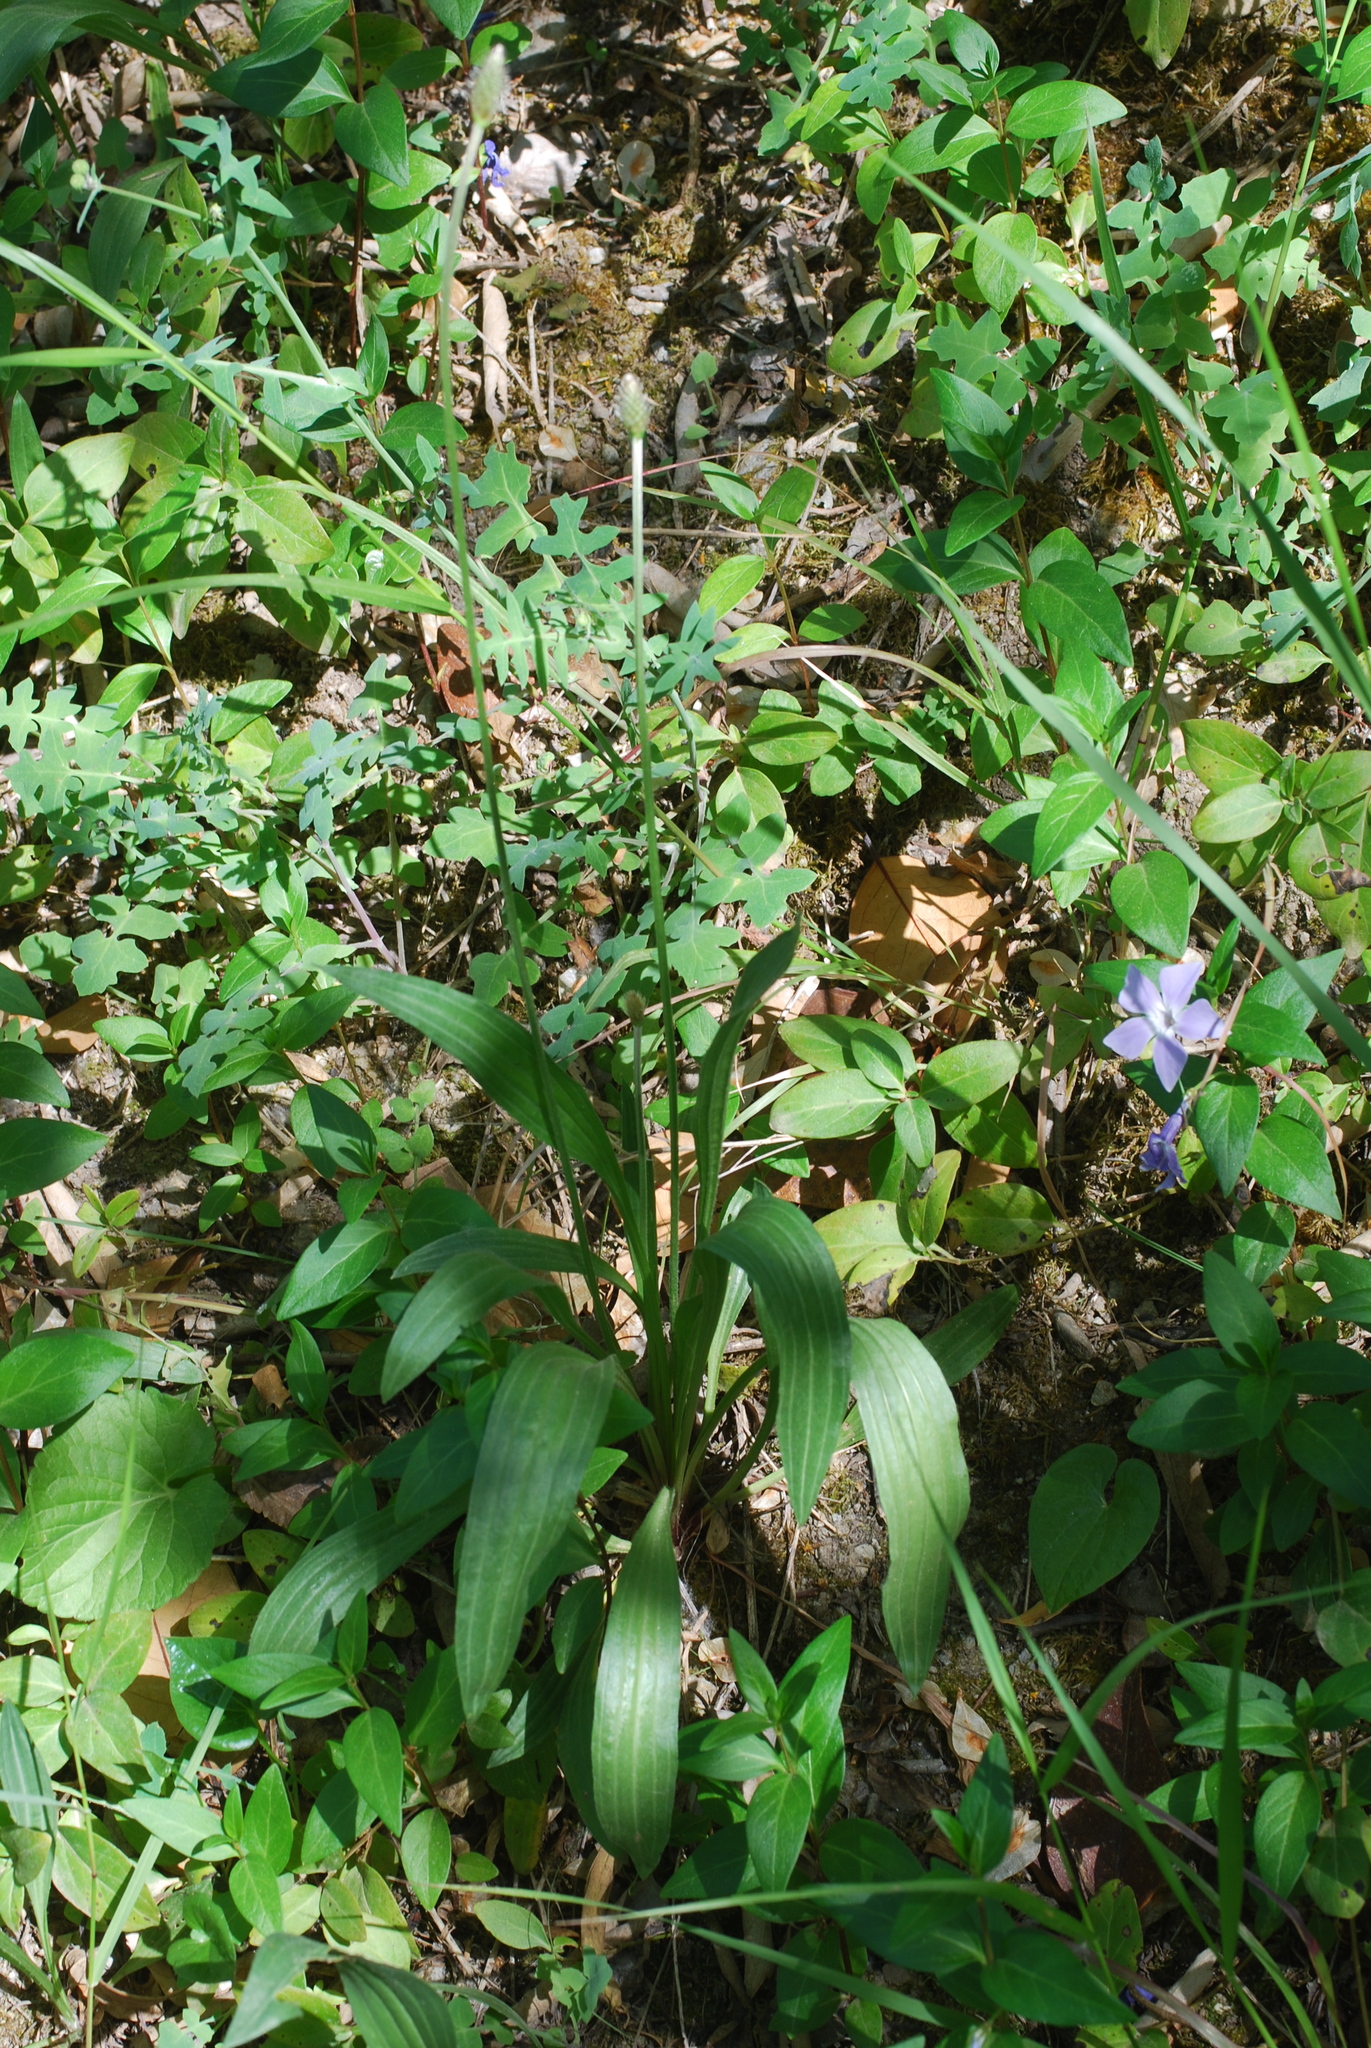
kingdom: Plantae
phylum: Tracheophyta
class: Magnoliopsida
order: Lamiales
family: Plantaginaceae
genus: Plantago
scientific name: Plantago lanceolata
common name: Ribwort plantain
